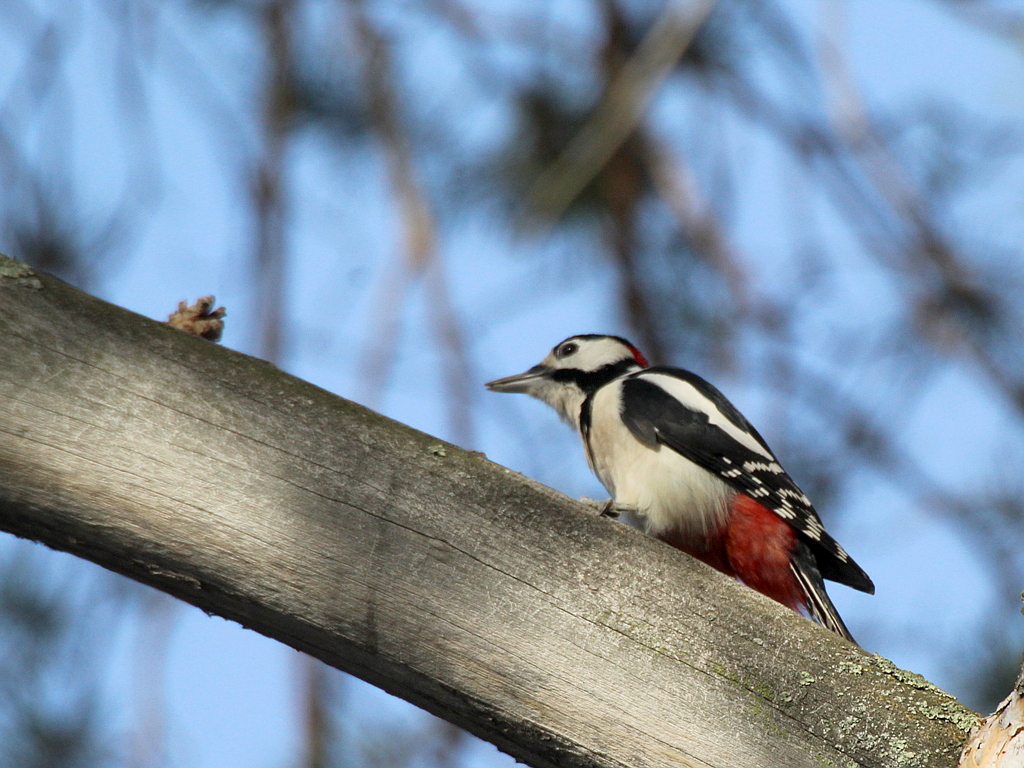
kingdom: Animalia
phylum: Chordata
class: Aves
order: Piciformes
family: Picidae
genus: Dendrocopos
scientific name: Dendrocopos major
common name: Great spotted woodpecker
